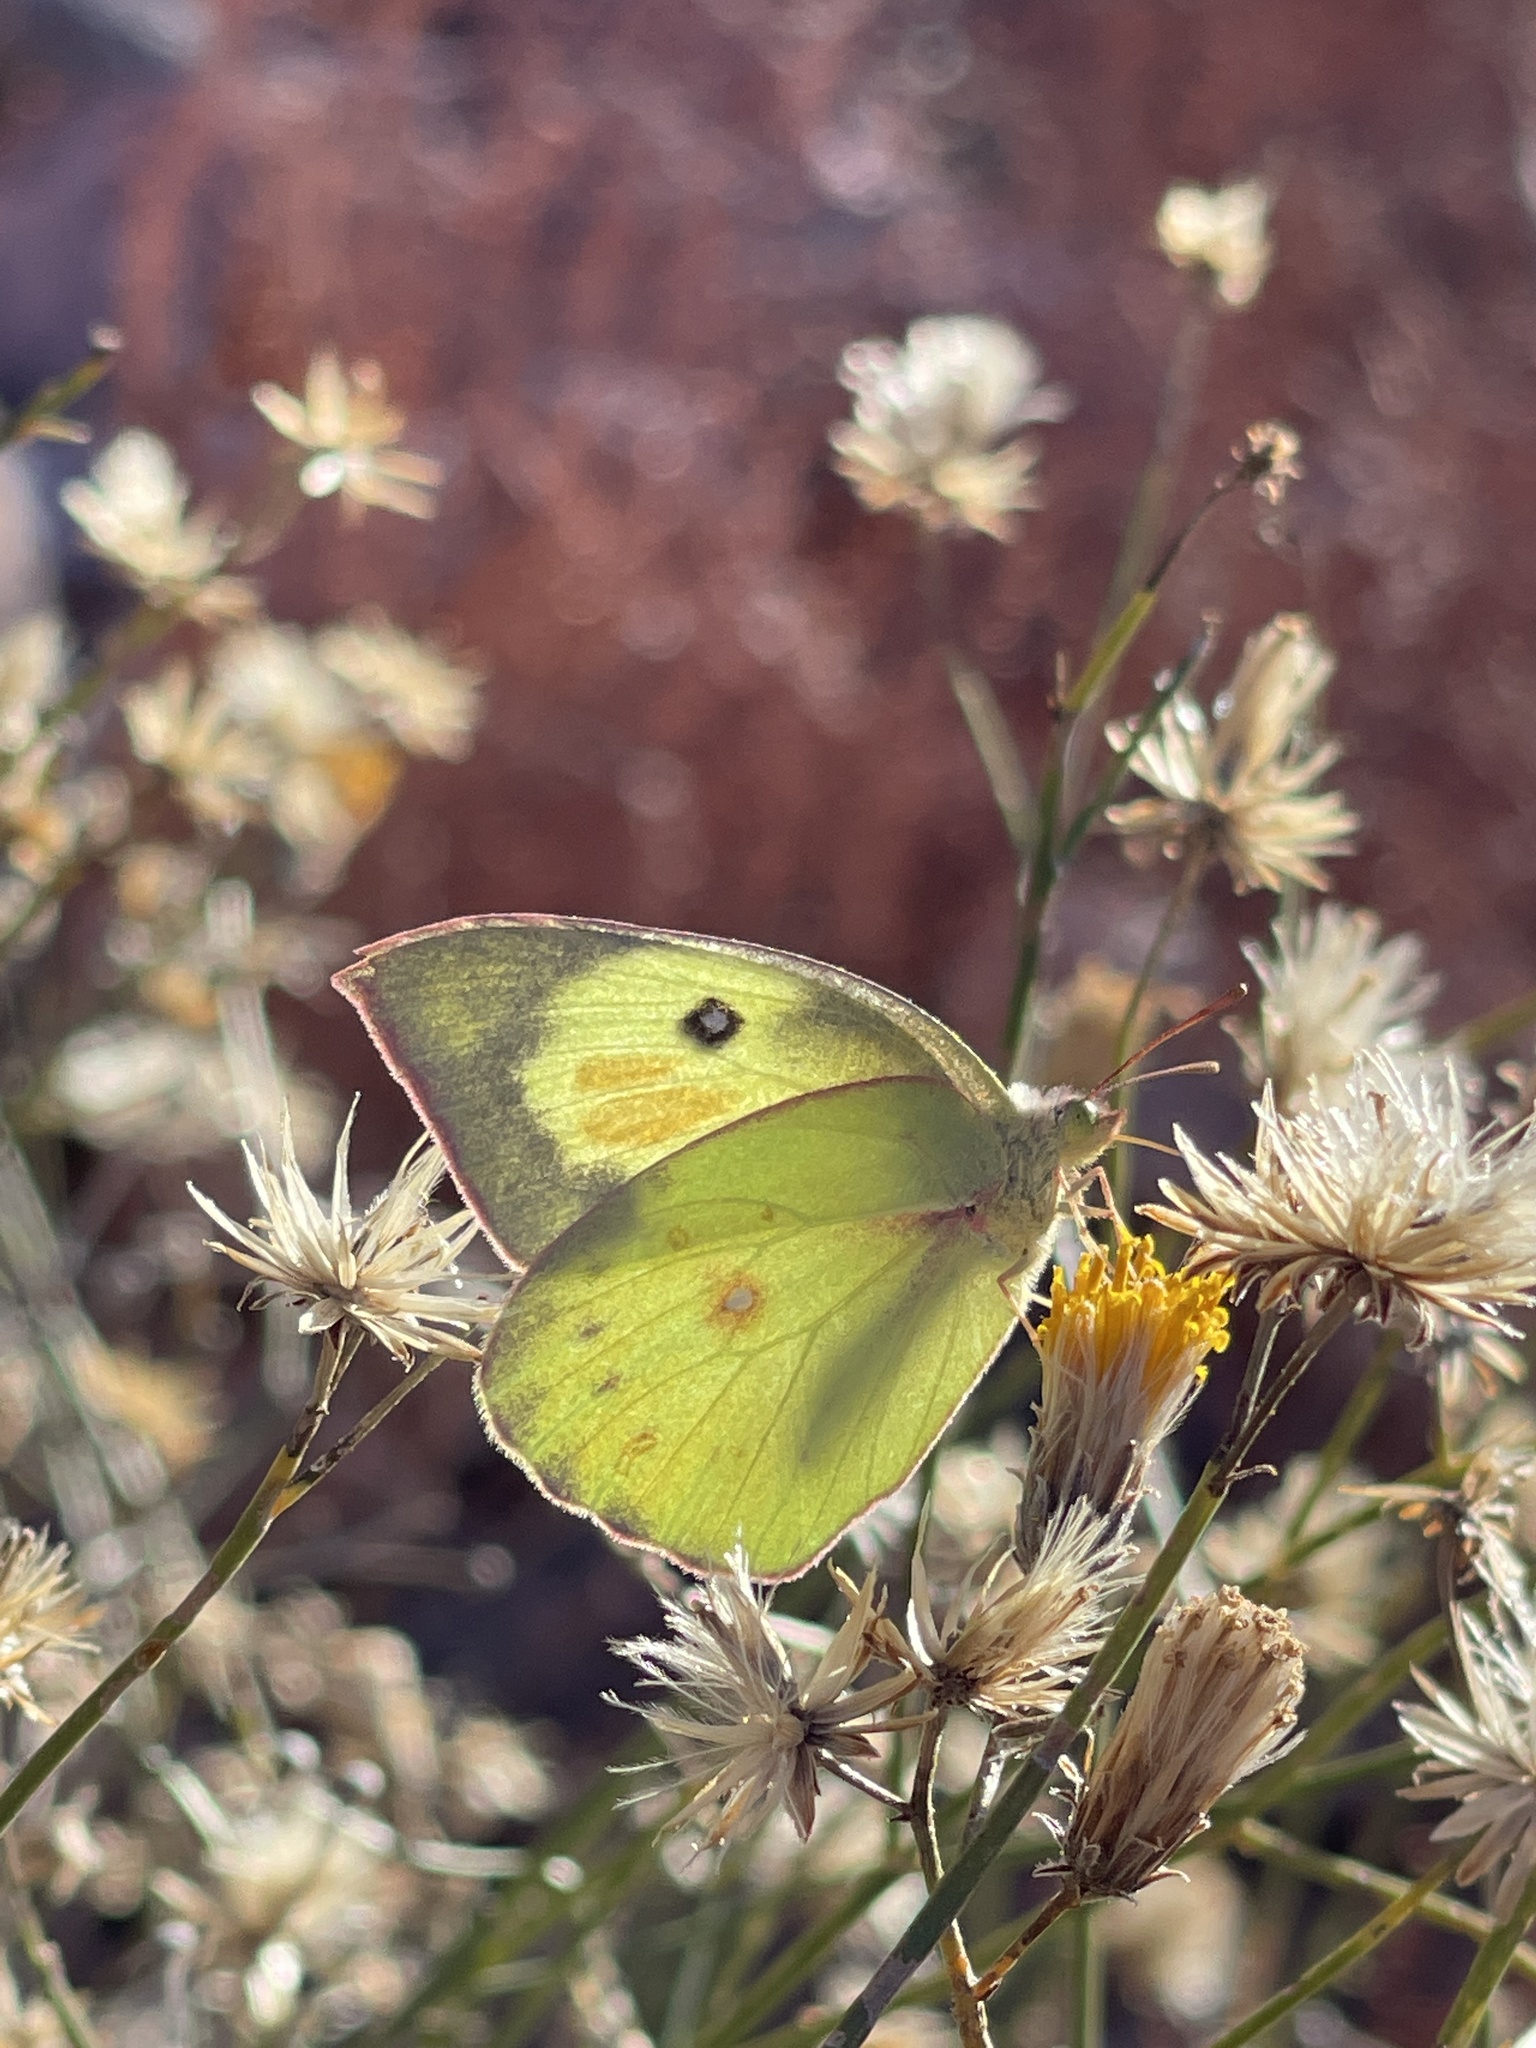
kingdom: Animalia
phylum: Arthropoda
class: Insecta
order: Lepidoptera
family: Pieridae
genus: Zerene
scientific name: Zerene cesonia
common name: Southern dogface
